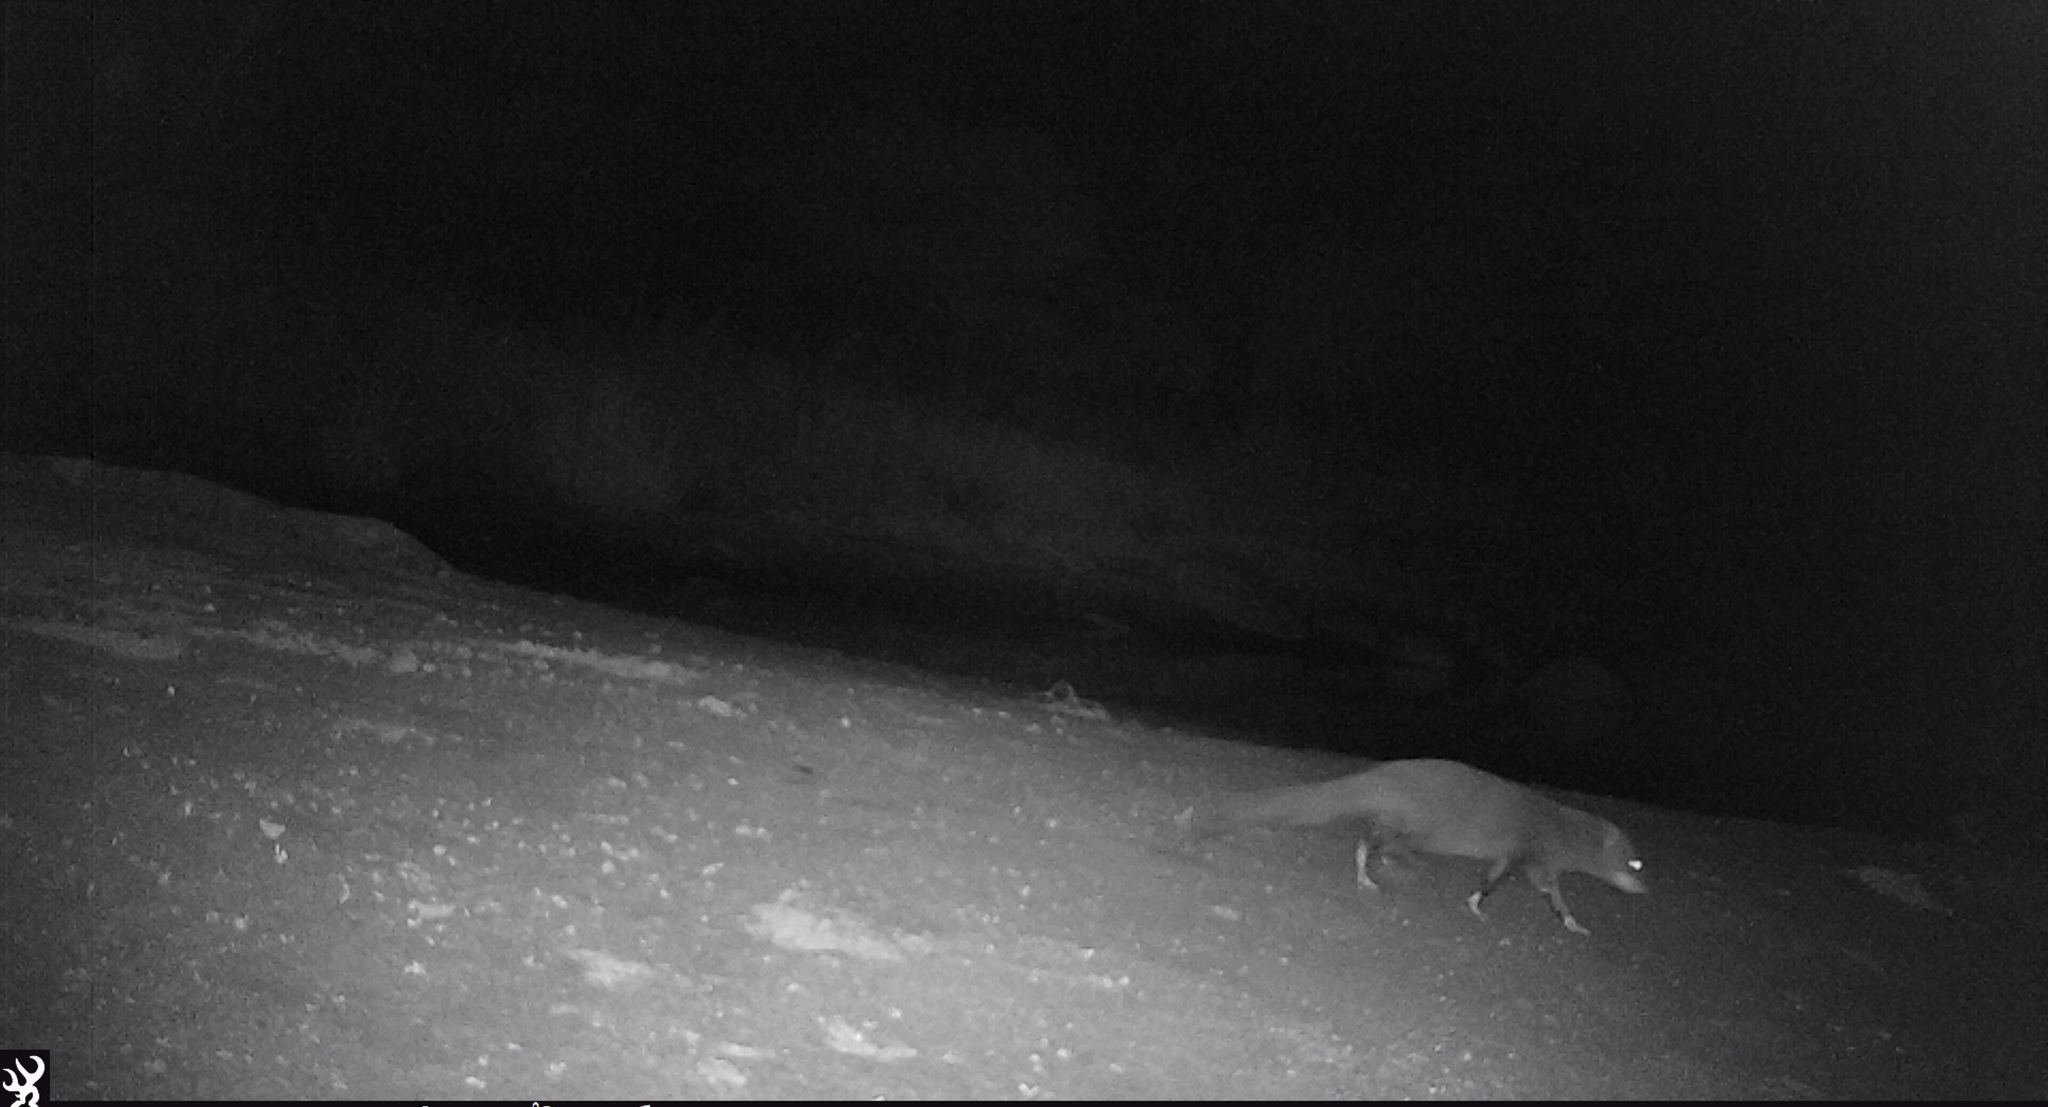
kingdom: Animalia
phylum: Chordata
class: Mammalia
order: Carnivora
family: Herpestidae
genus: Atilax
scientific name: Atilax paludinosus
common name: Marsh mongoose
